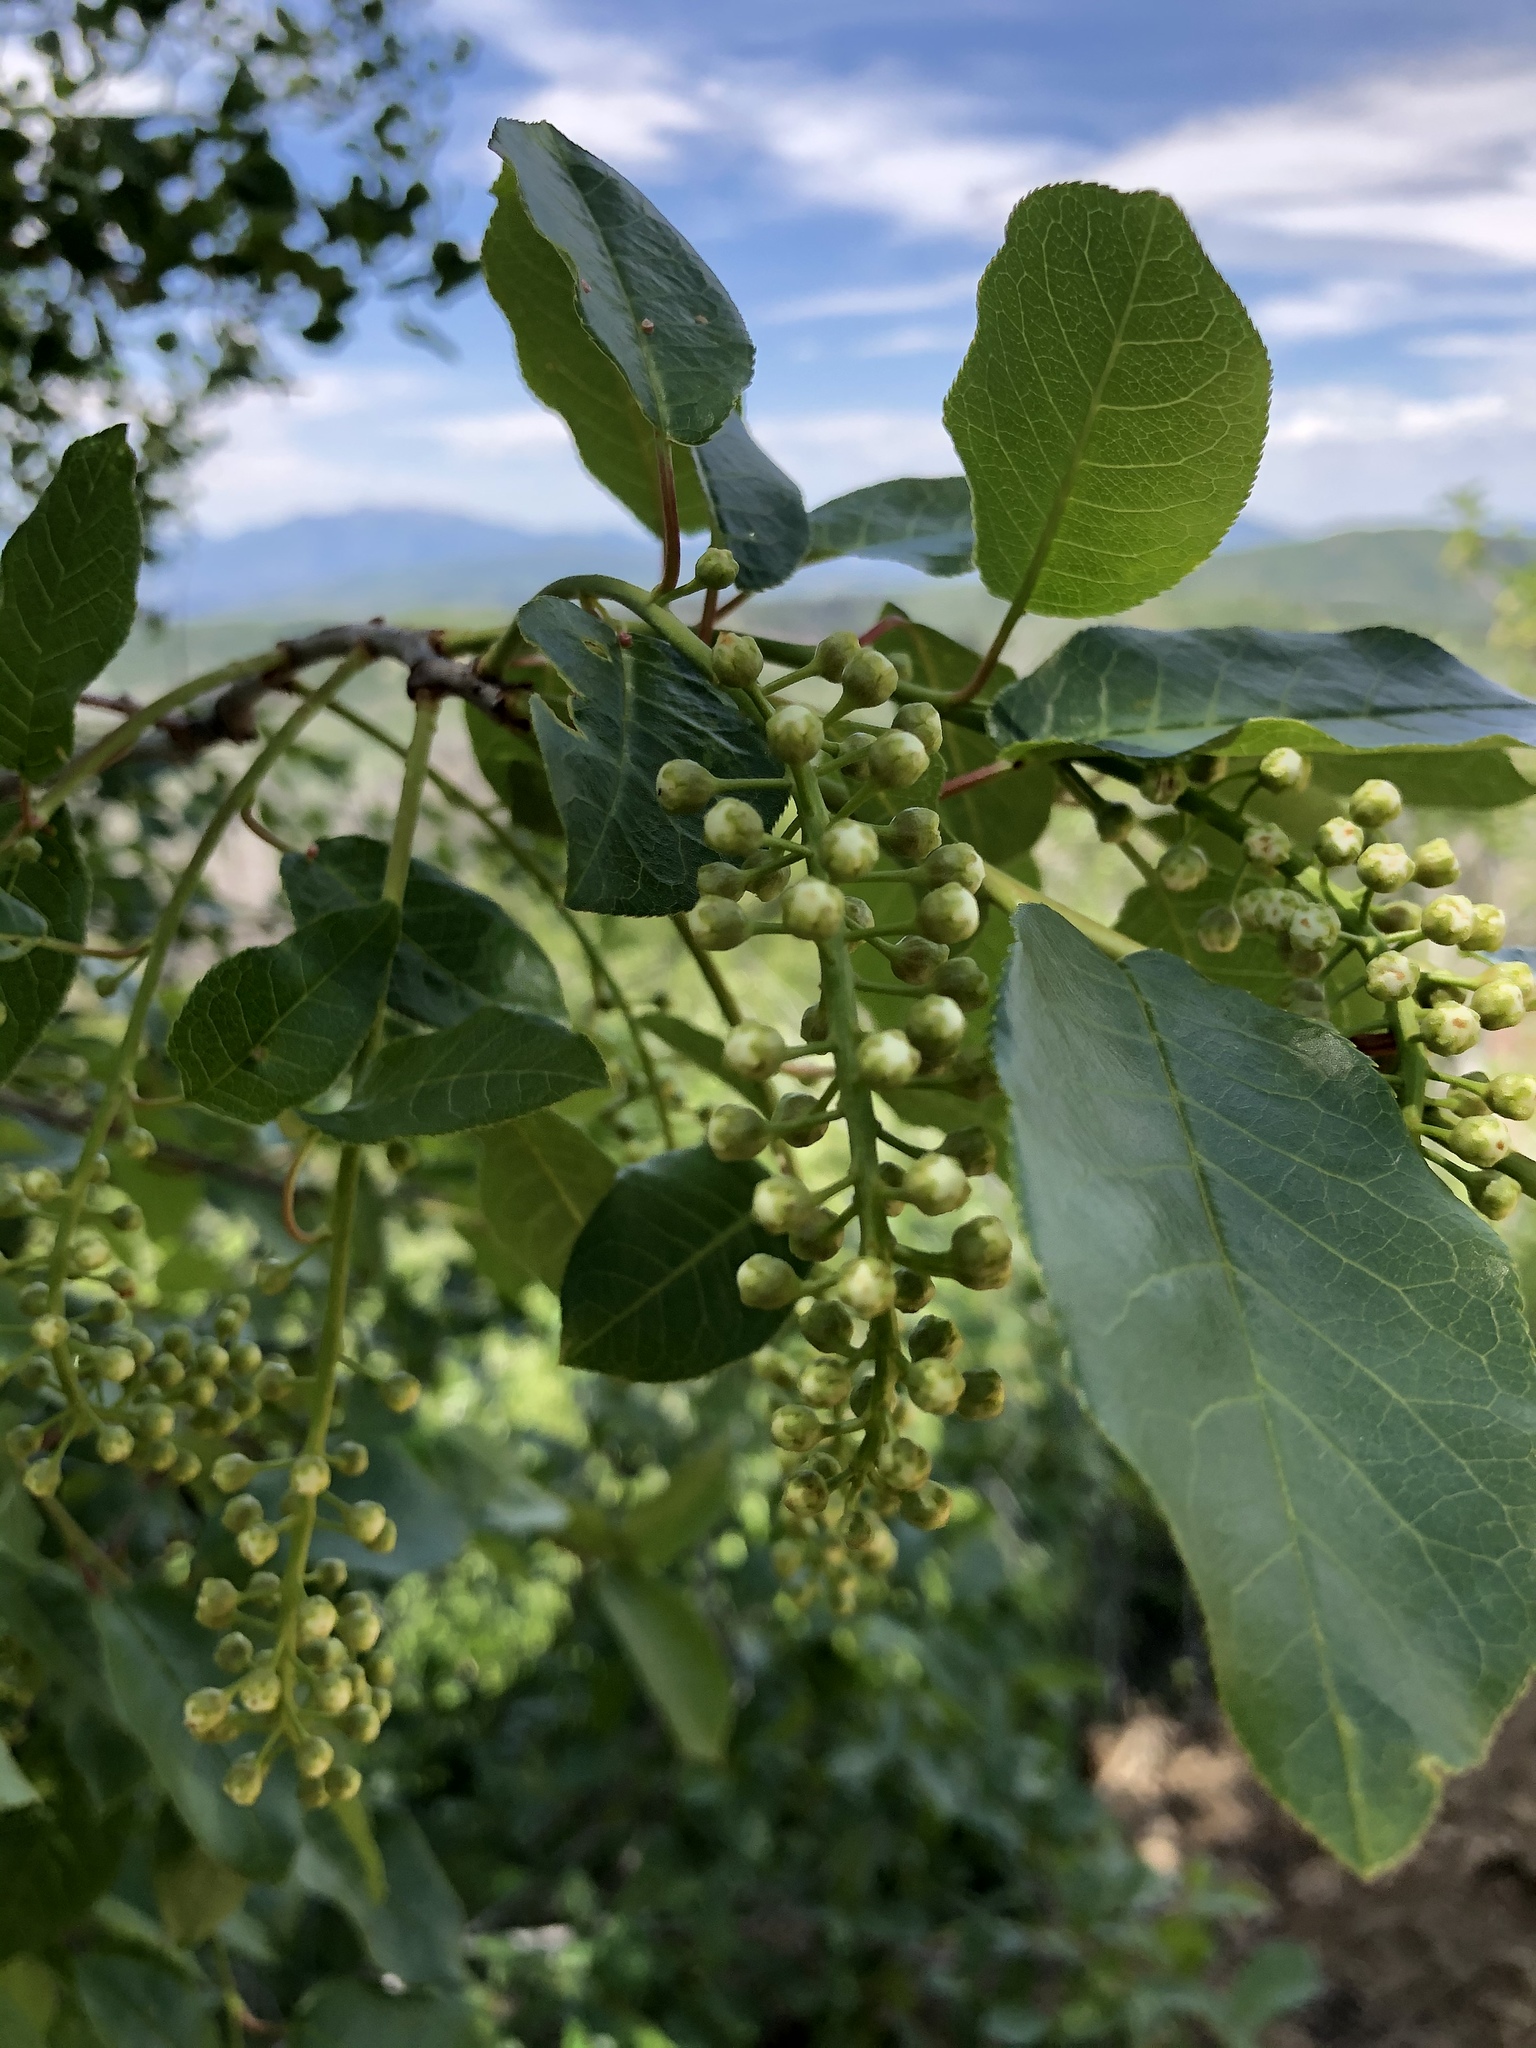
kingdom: Plantae
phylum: Tracheophyta
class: Magnoliopsida
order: Rosales
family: Rosaceae
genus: Prunus
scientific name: Prunus virginiana
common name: Chokecherry
